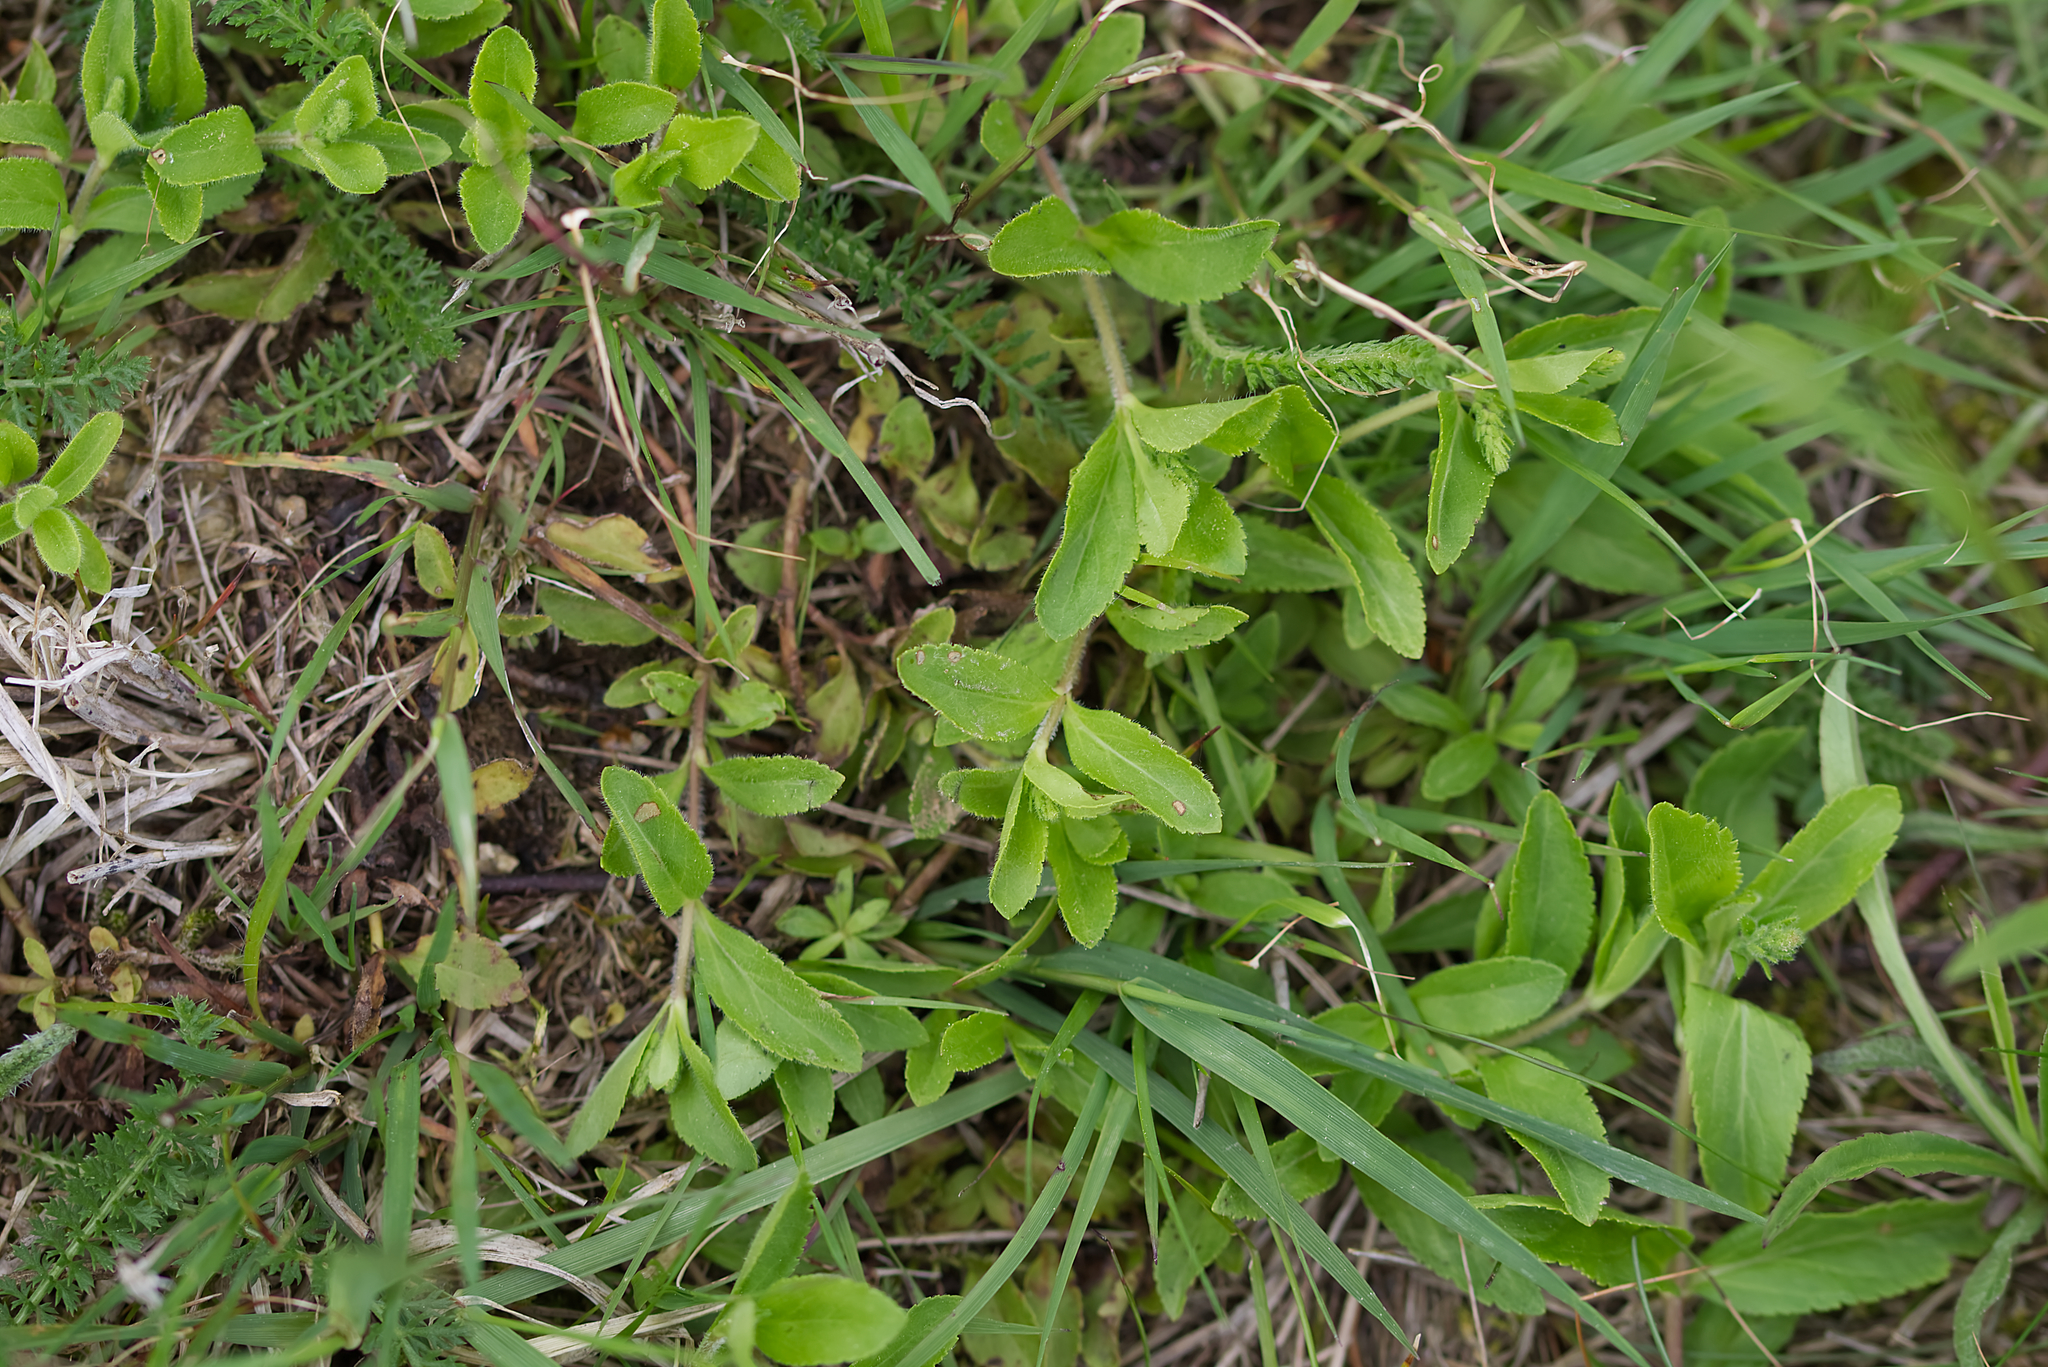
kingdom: Plantae
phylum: Tracheophyta
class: Magnoliopsida
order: Lamiales
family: Plantaginaceae
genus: Veronica
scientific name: Veronica officinalis
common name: Common speedwell
